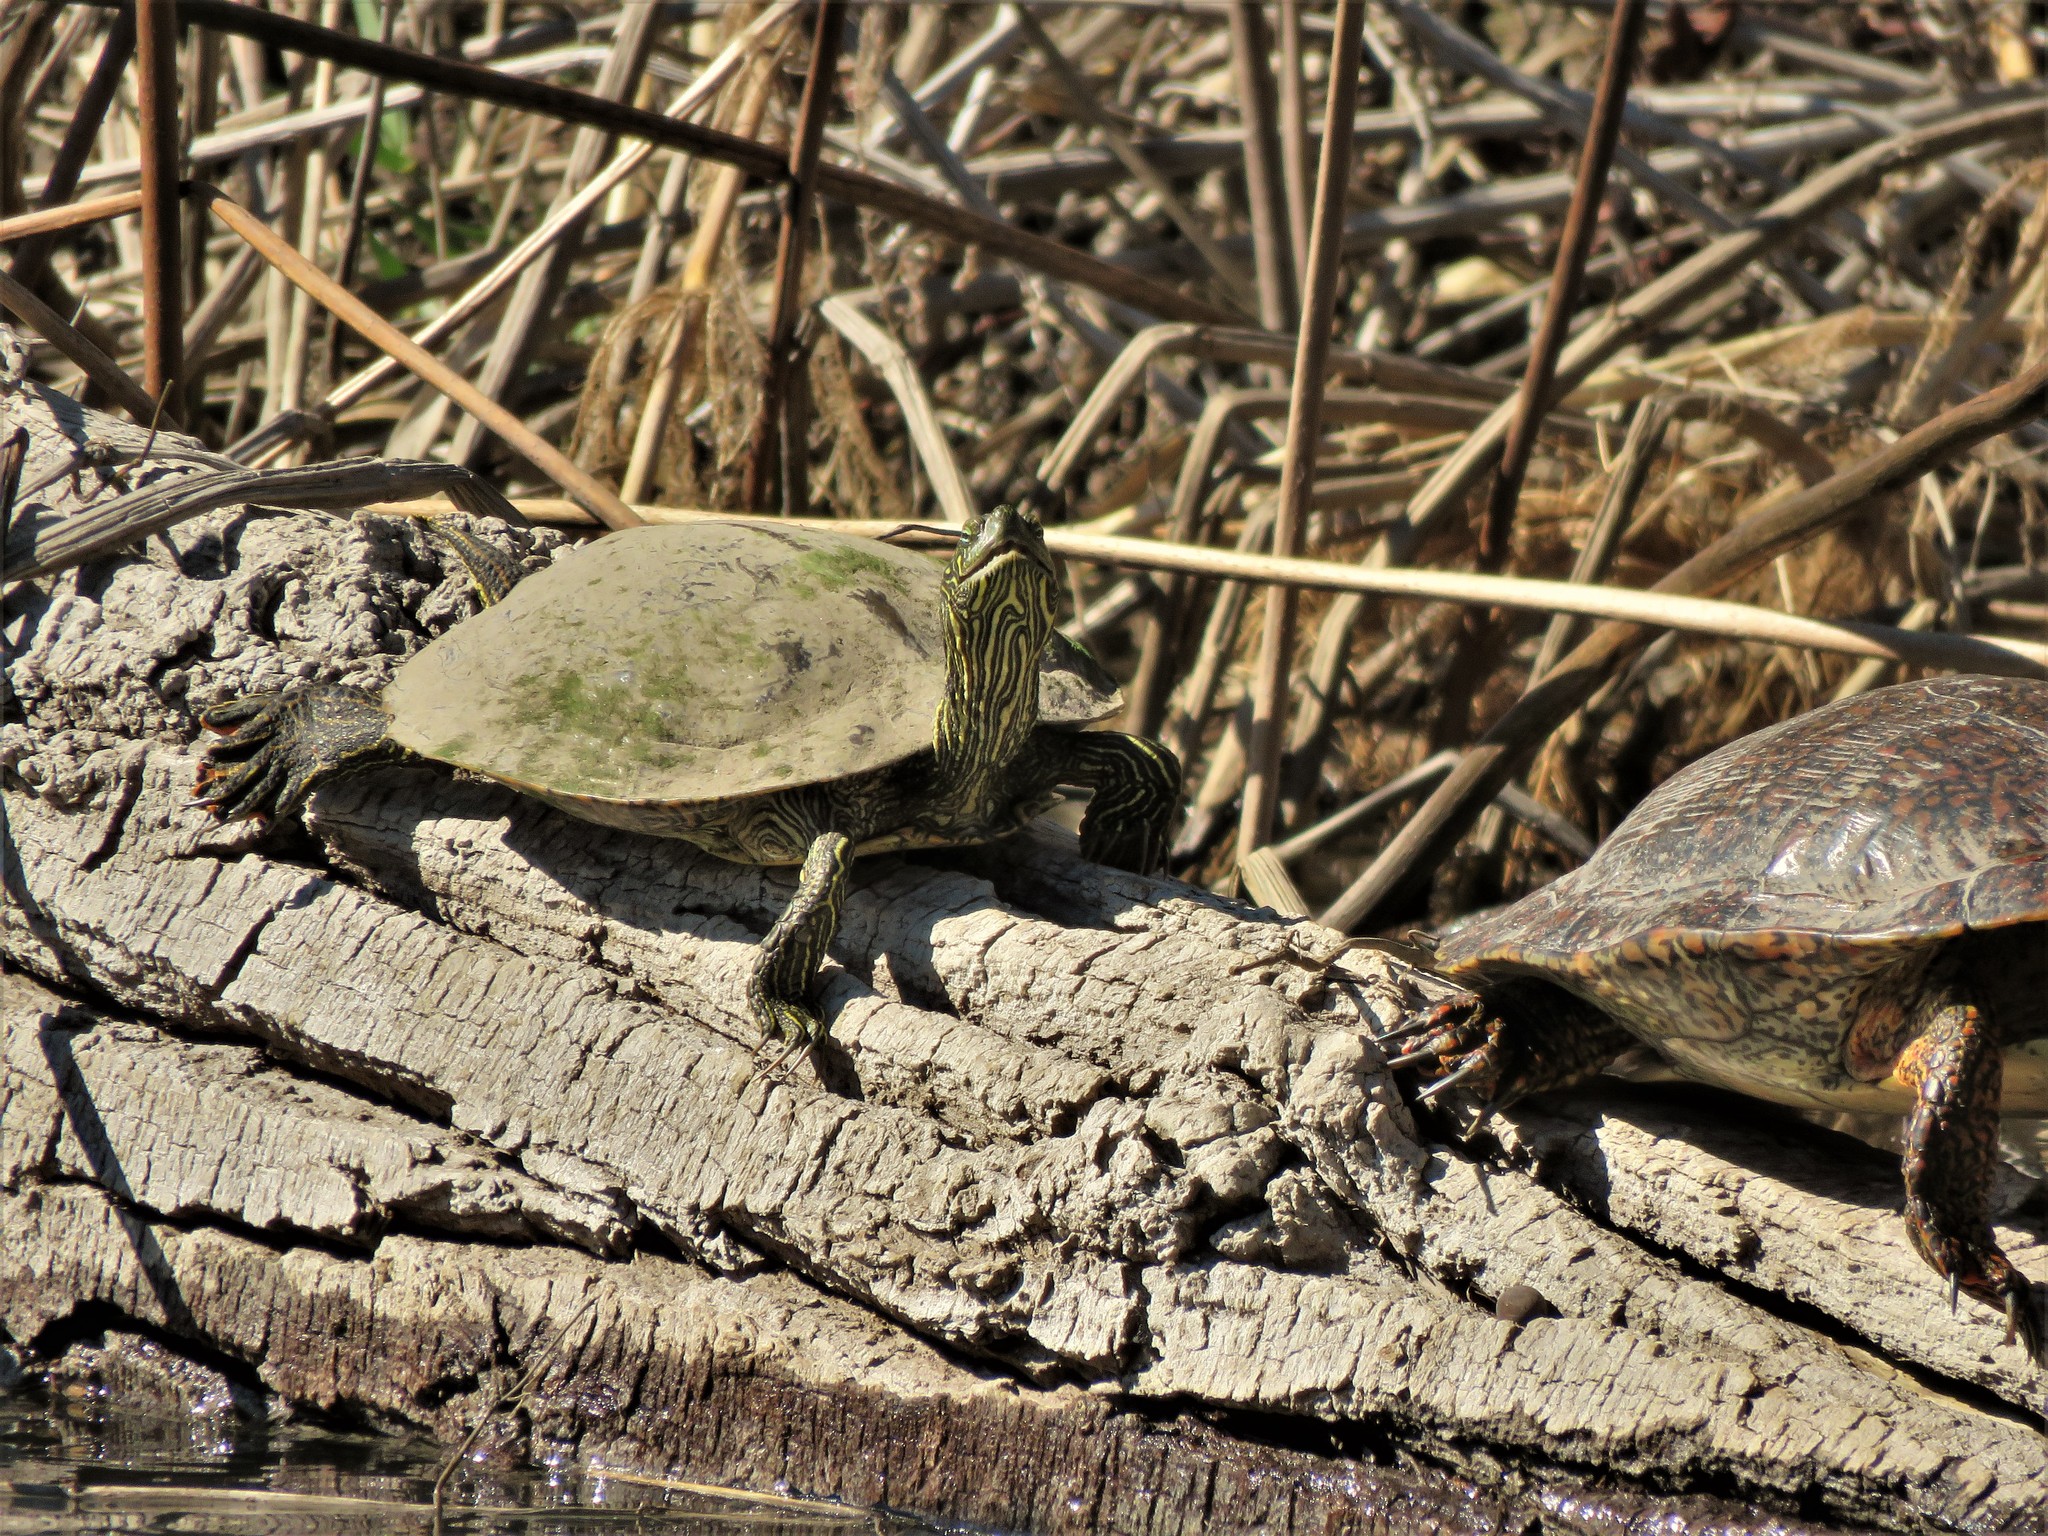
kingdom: Animalia
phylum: Chordata
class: Testudines
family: Emydidae
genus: Pseudemys
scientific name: Pseudemys texana
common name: Texas river cooter
